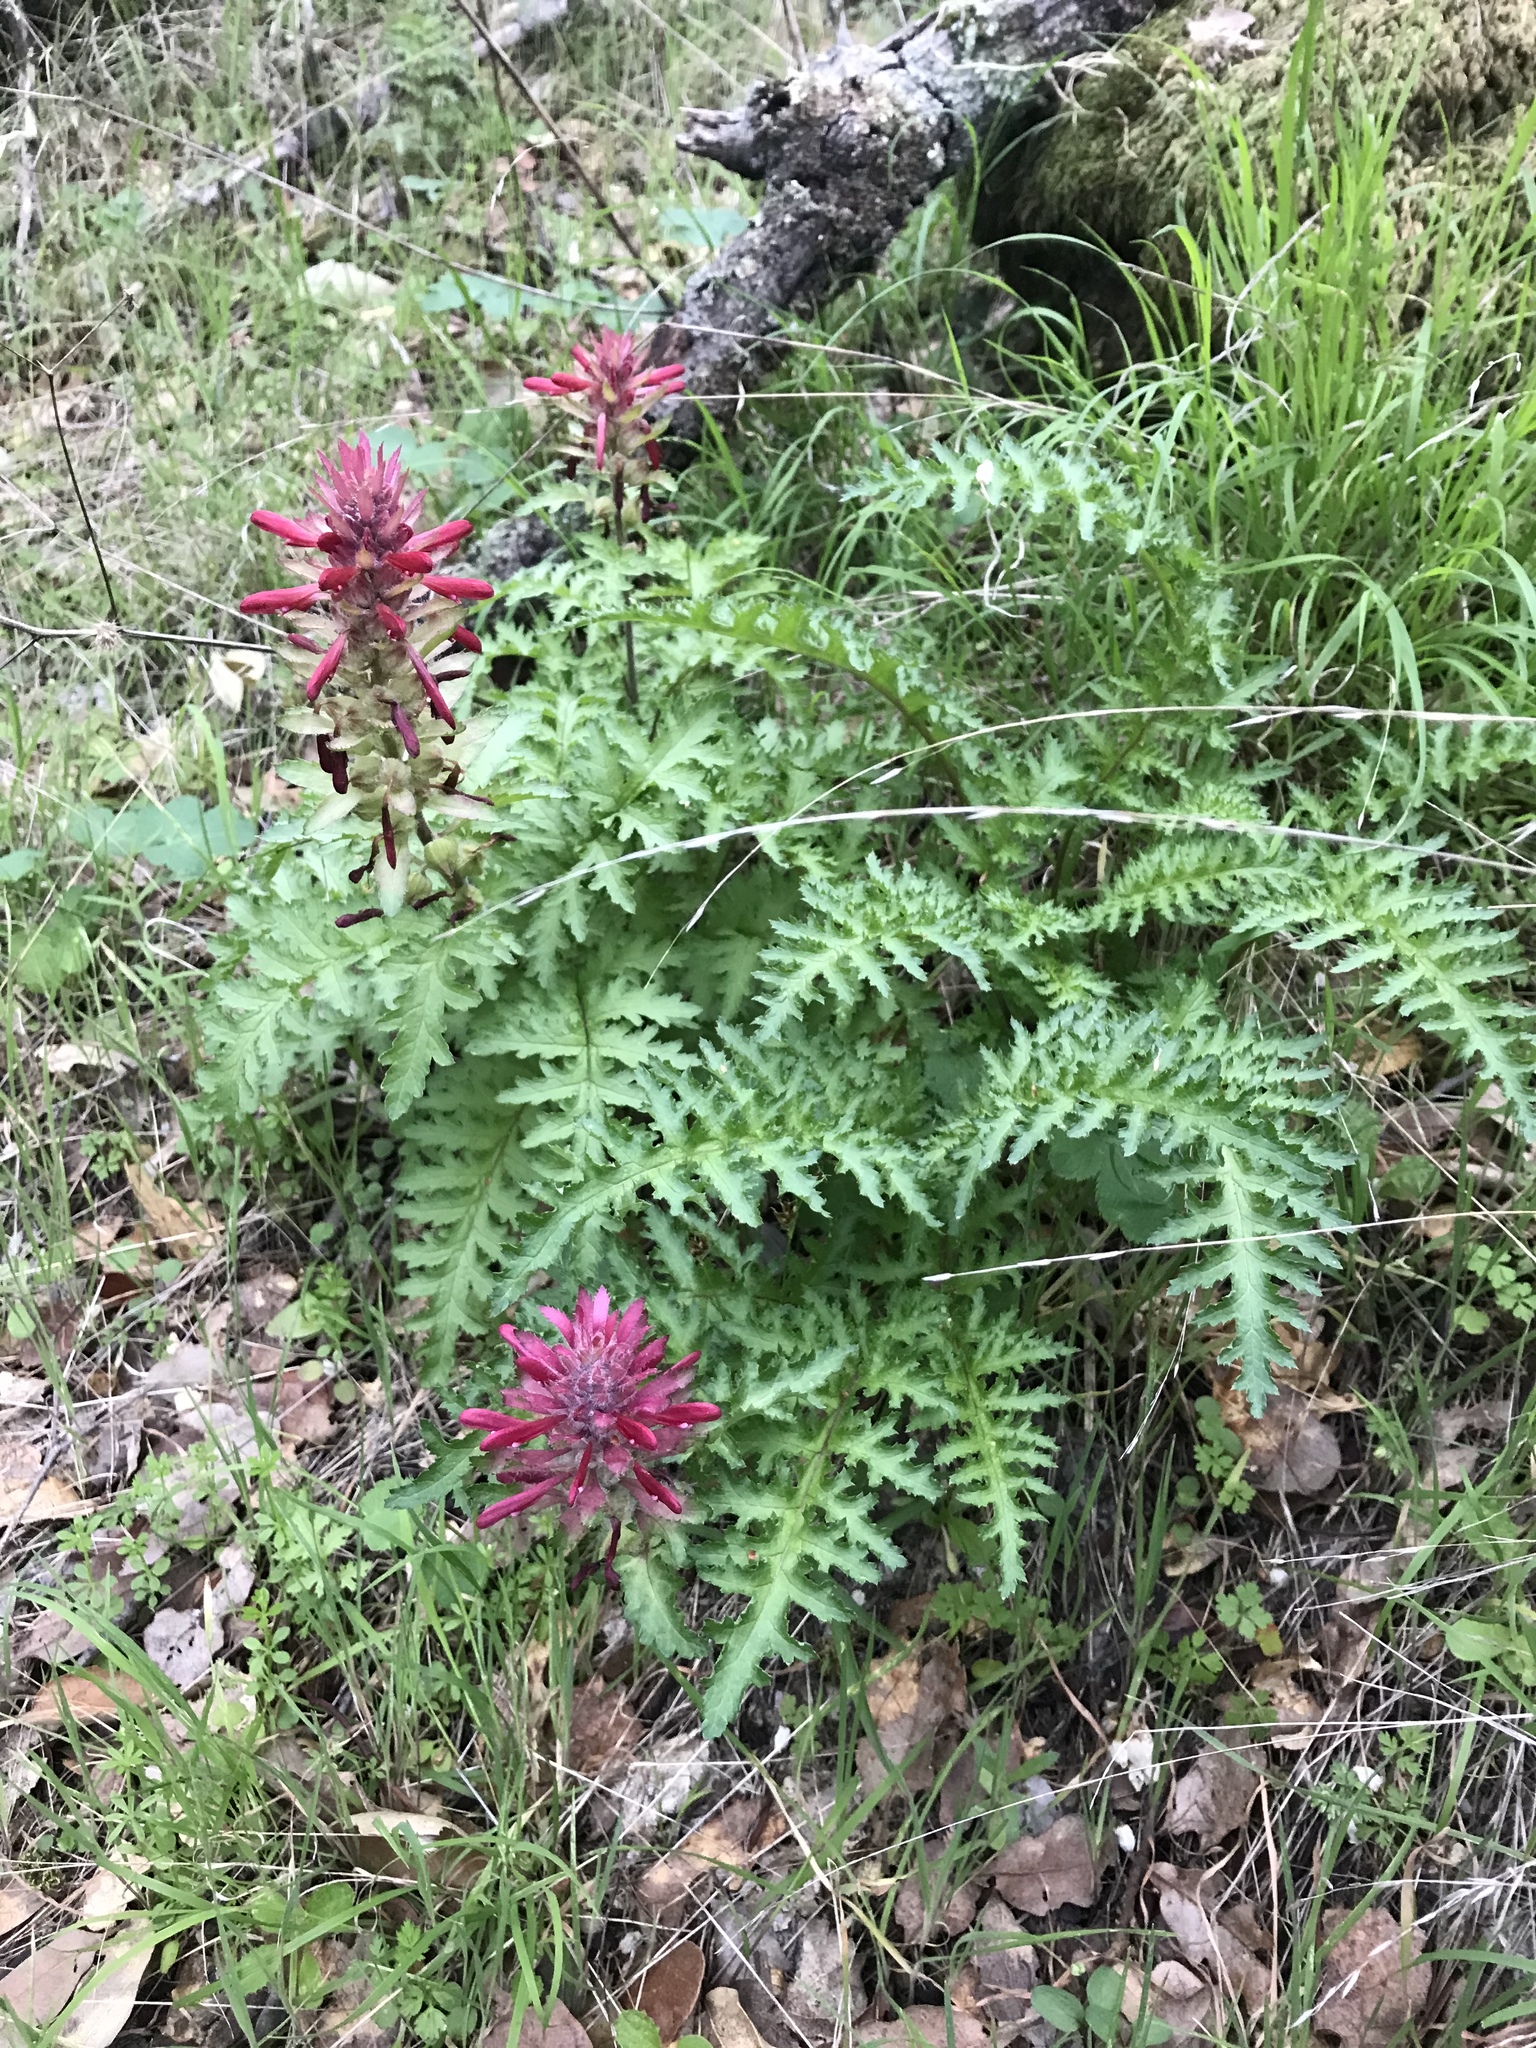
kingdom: Plantae
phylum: Tracheophyta
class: Magnoliopsida
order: Lamiales
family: Orobanchaceae
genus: Pedicularis
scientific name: Pedicularis densiflora
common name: Indian warrior
